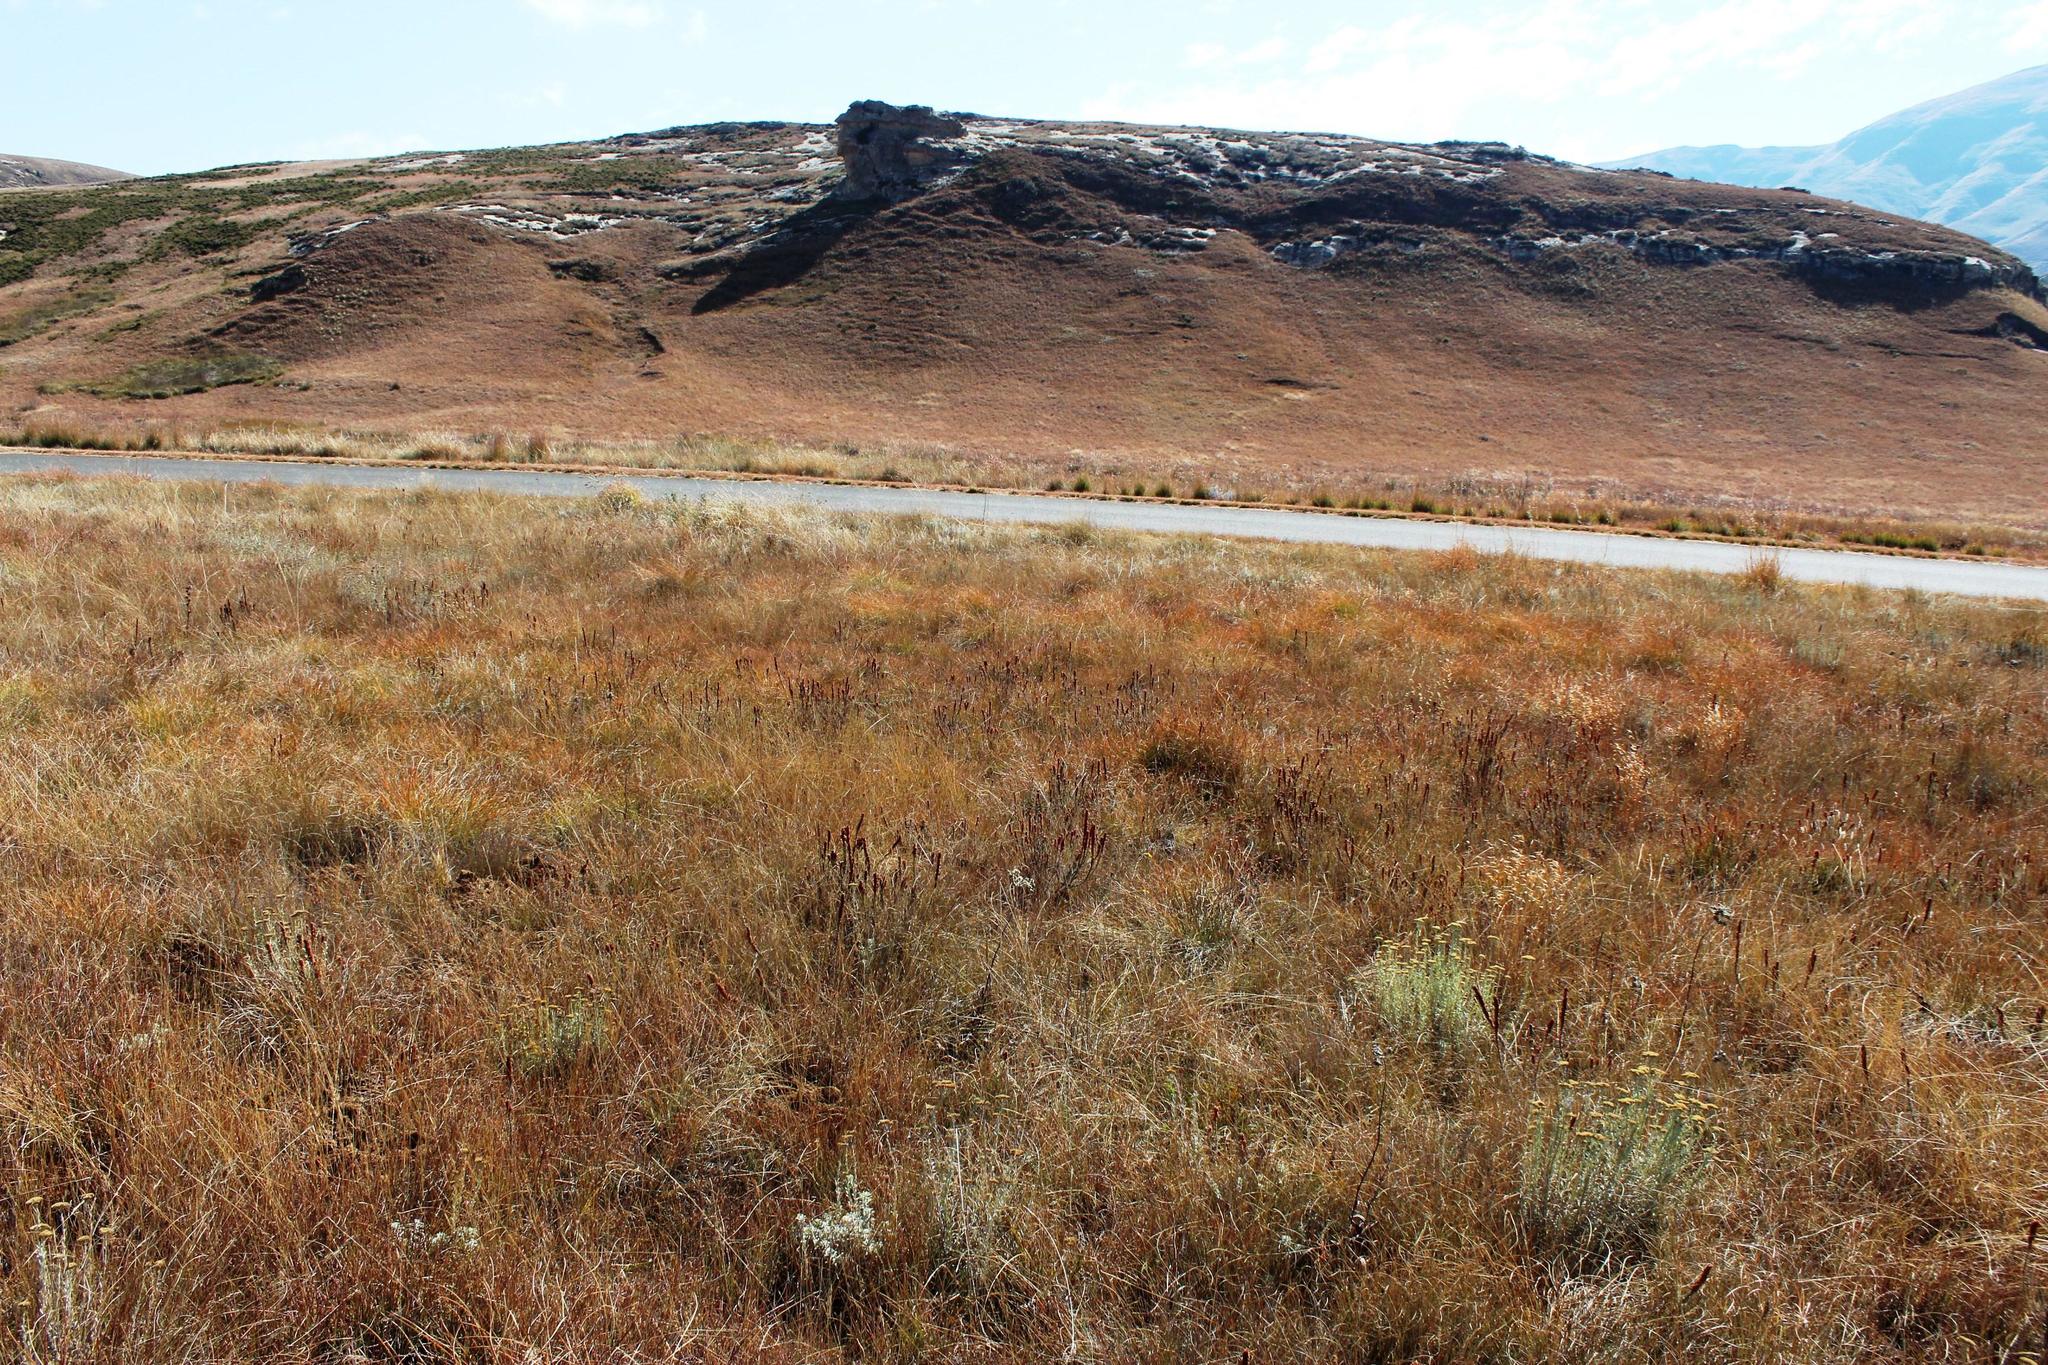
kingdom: Plantae
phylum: Tracheophyta
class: Magnoliopsida
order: Ericales
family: Ericaceae
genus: Erica
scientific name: Erica woodii
